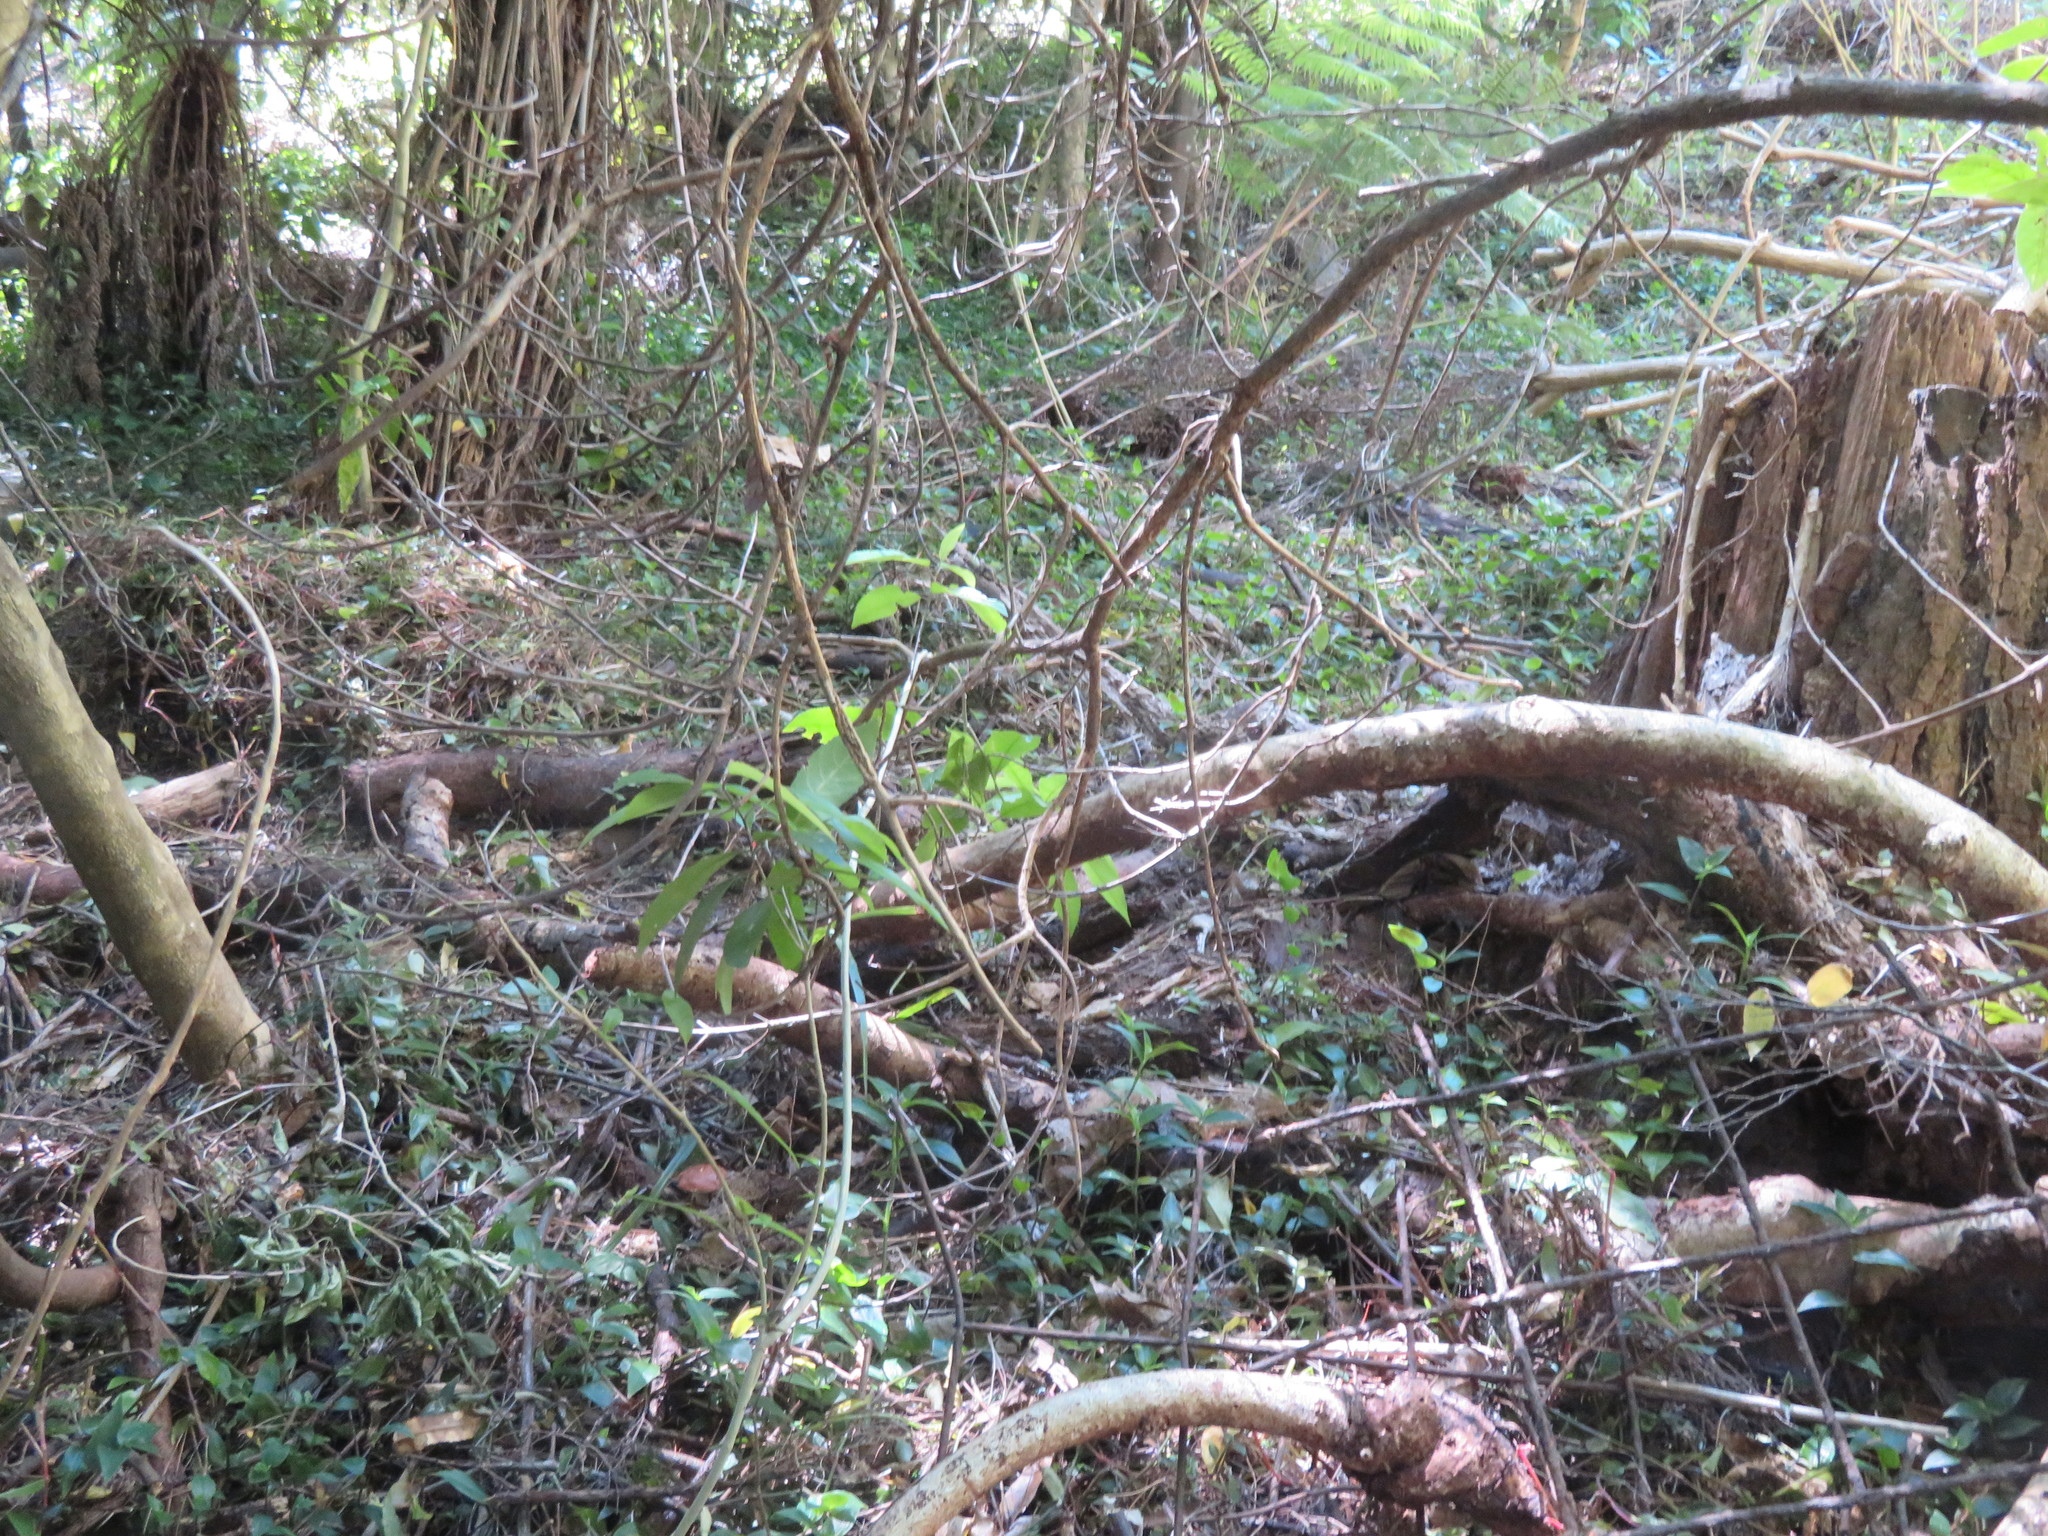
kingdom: Plantae
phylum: Tracheophyta
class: Magnoliopsida
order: Malpighiales
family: Violaceae
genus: Melicytus
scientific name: Melicytus ramiflorus
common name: Mahoe
